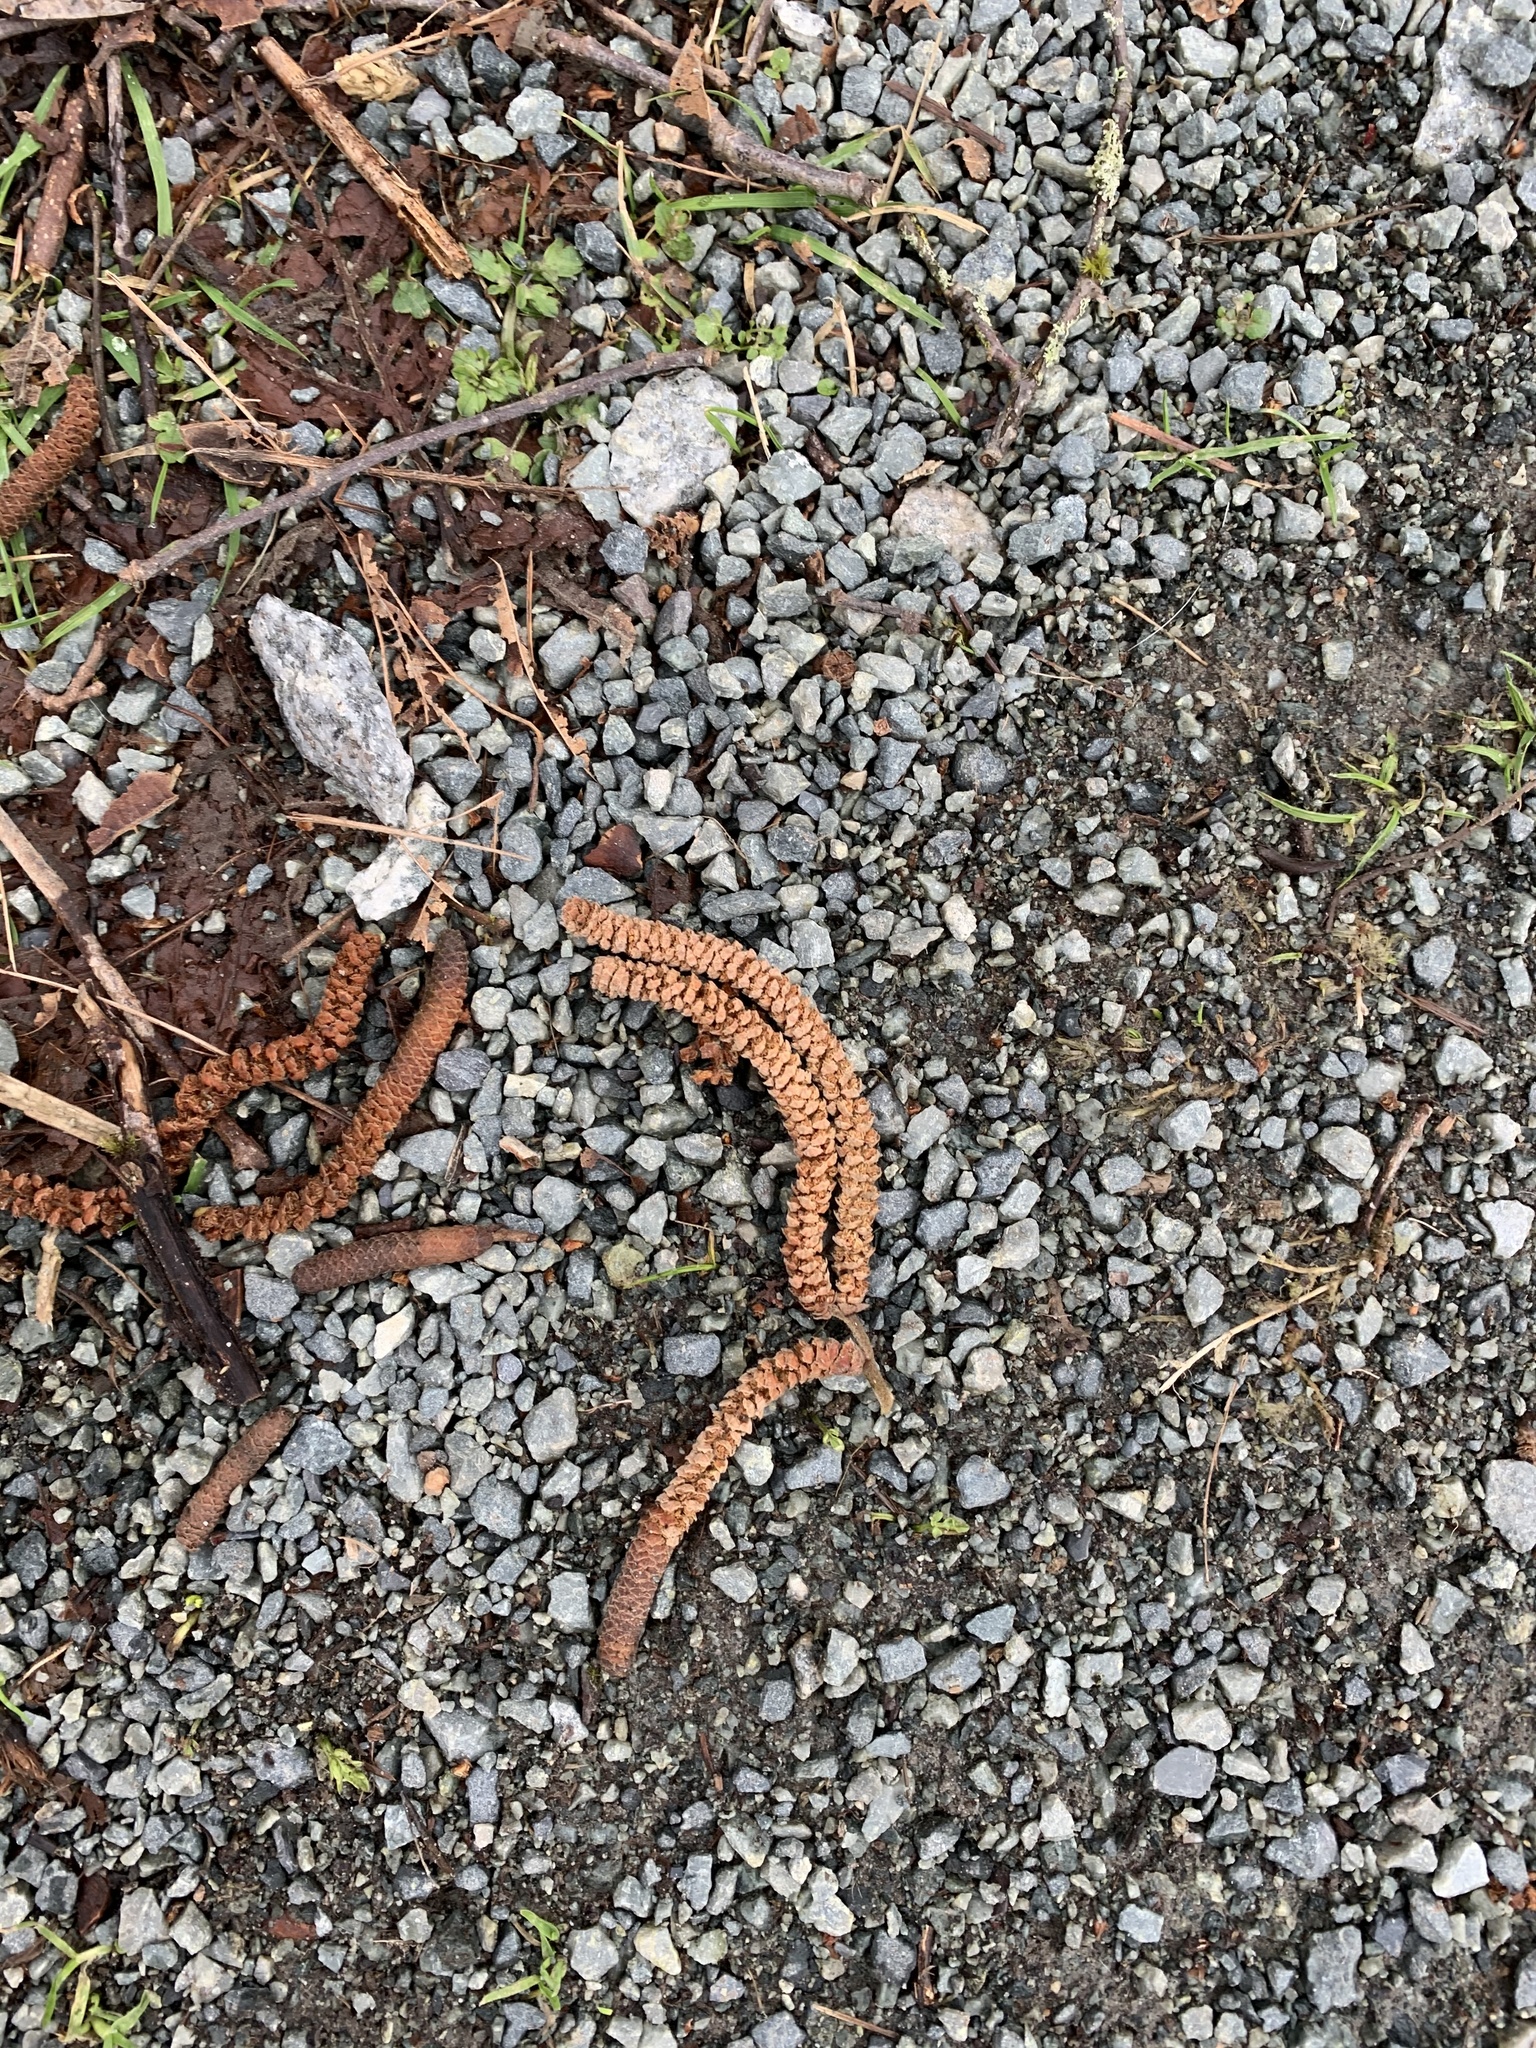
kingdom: Plantae
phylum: Tracheophyta
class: Magnoliopsida
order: Fagales
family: Betulaceae
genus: Alnus
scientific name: Alnus rubra
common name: Red alder
